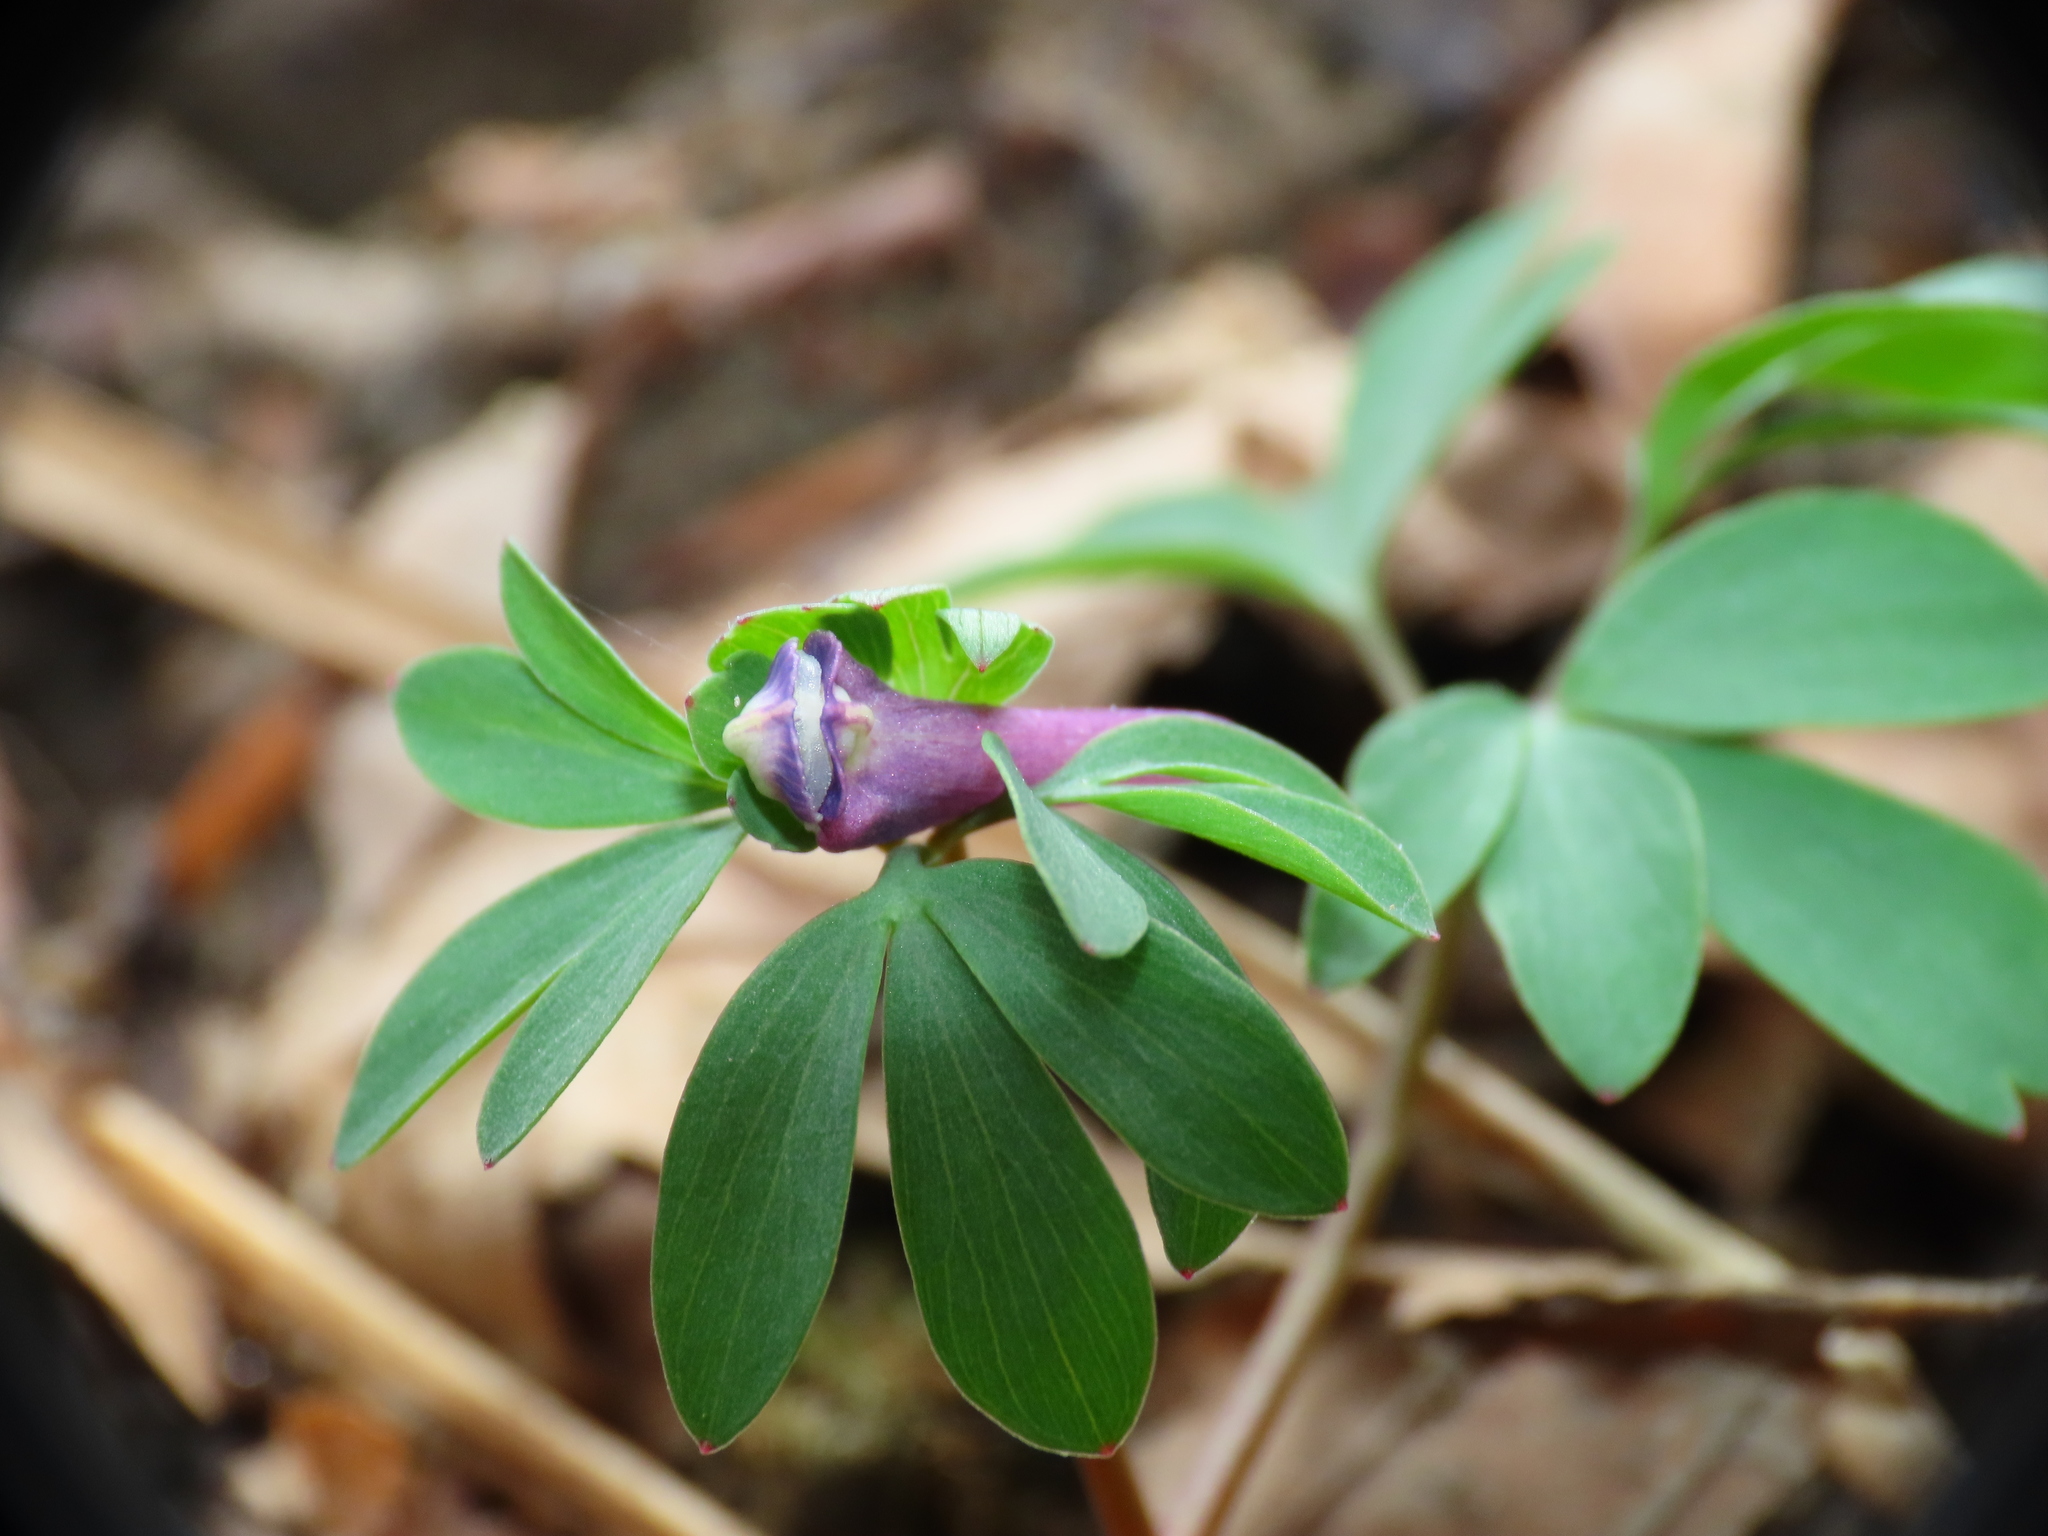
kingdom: Plantae
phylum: Tracheophyta
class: Magnoliopsida
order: Ranunculales
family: Papaveraceae
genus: Corydalis
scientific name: Corydalis pumila
